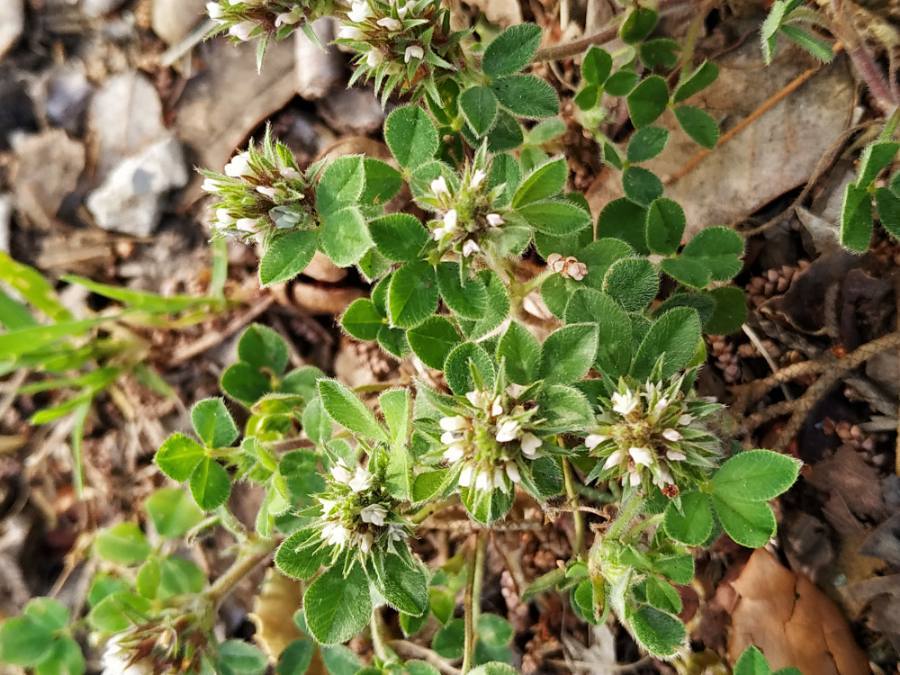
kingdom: Plantae
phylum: Tracheophyta
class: Magnoliopsida
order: Fabales
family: Fabaceae
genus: Trifolium
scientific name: Trifolium scabrum
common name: Rough clover
